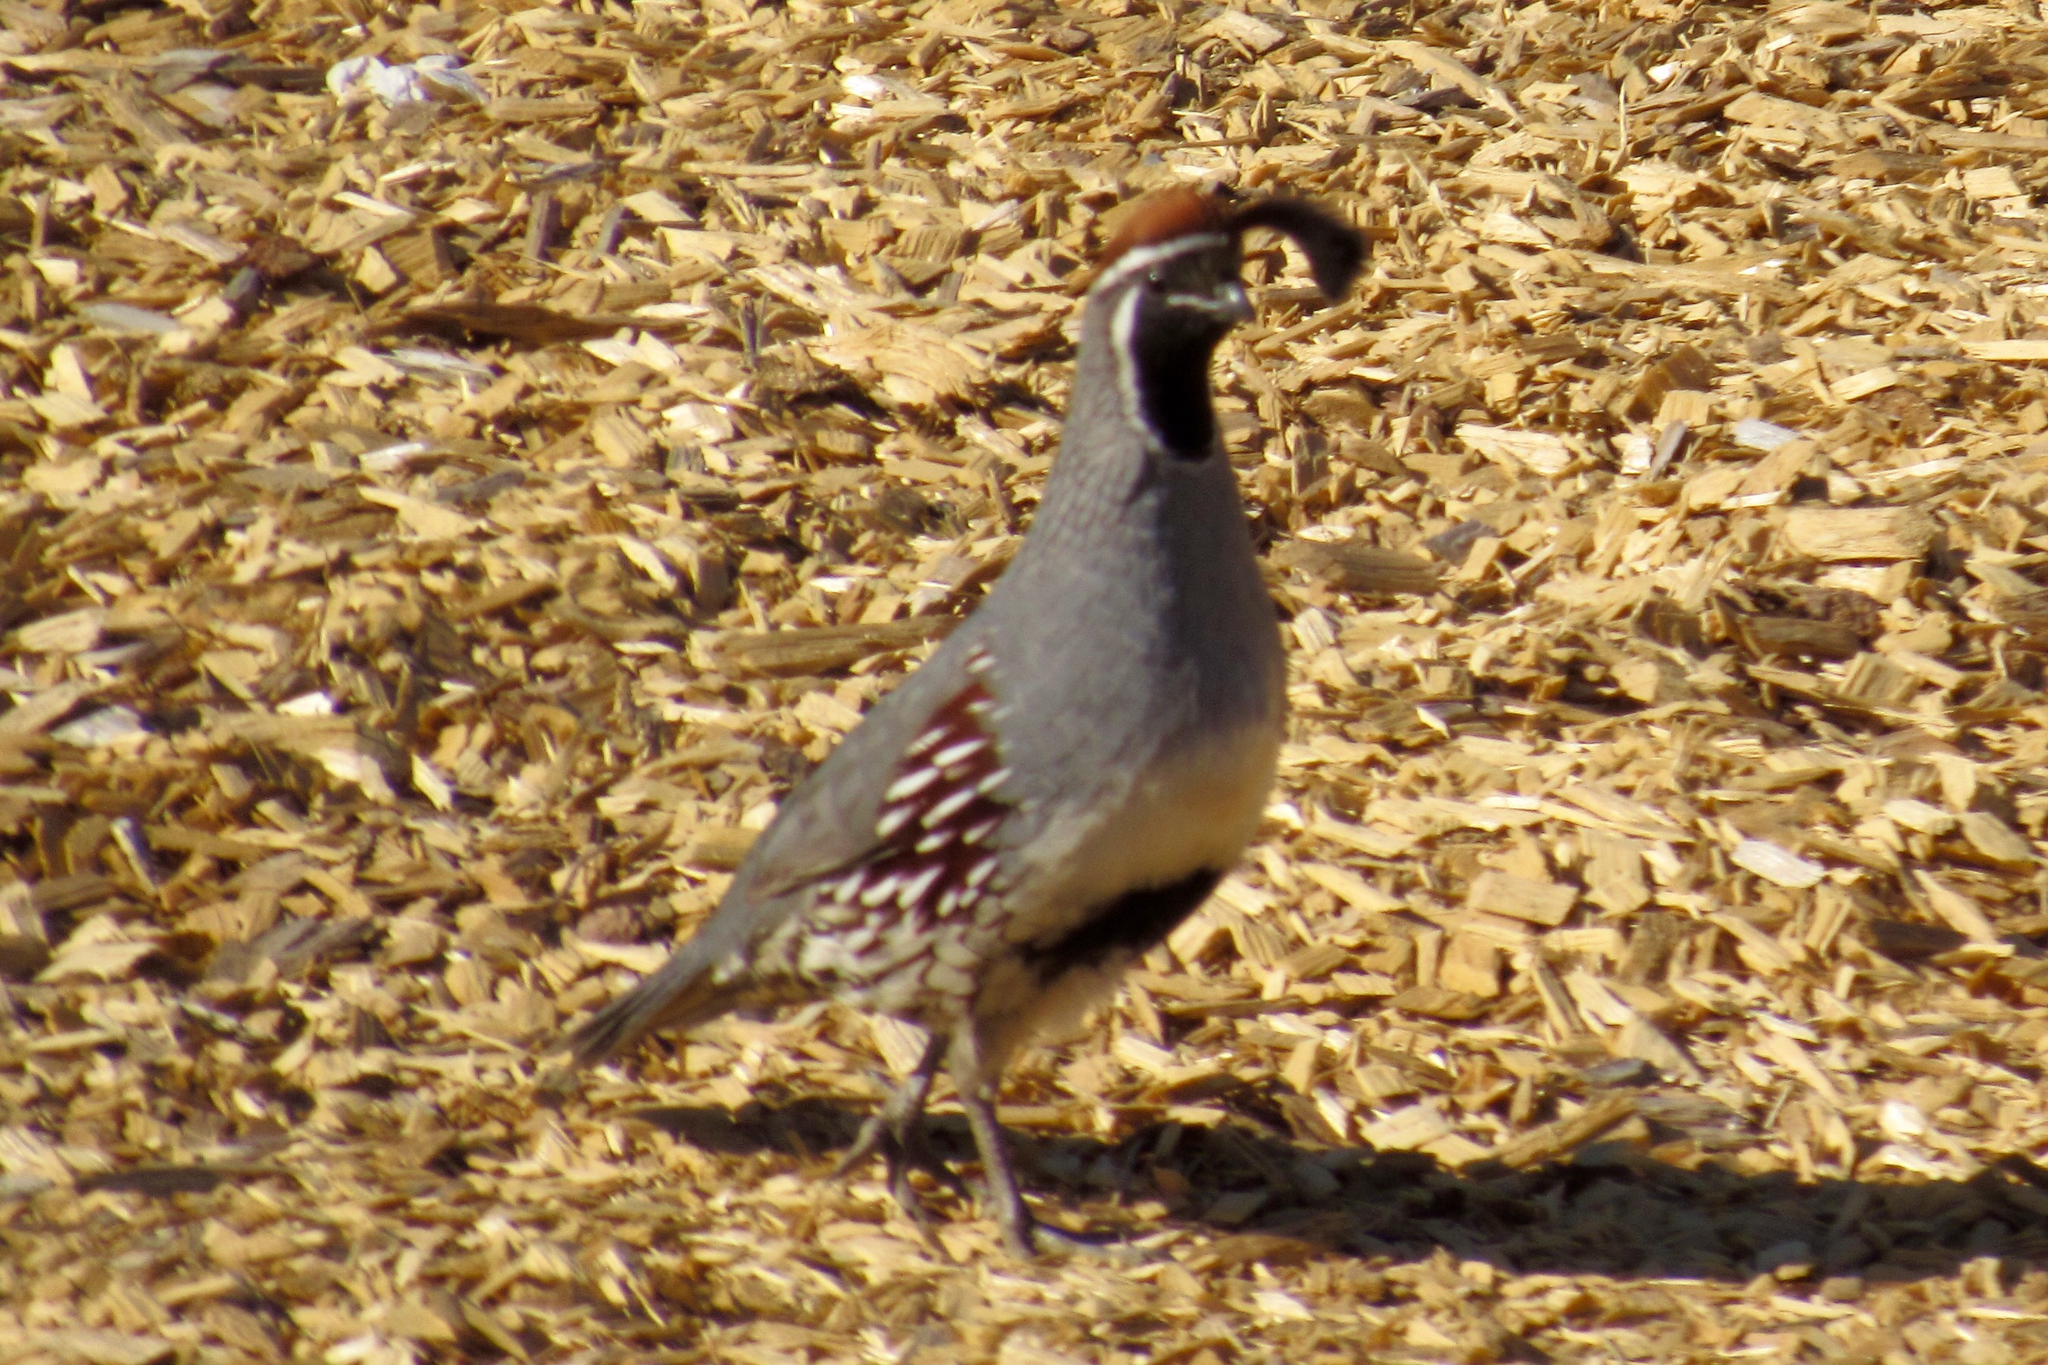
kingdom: Animalia
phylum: Chordata
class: Aves
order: Galliformes
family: Odontophoridae
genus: Callipepla
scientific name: Callipepla gambelii
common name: Gambel's quail
